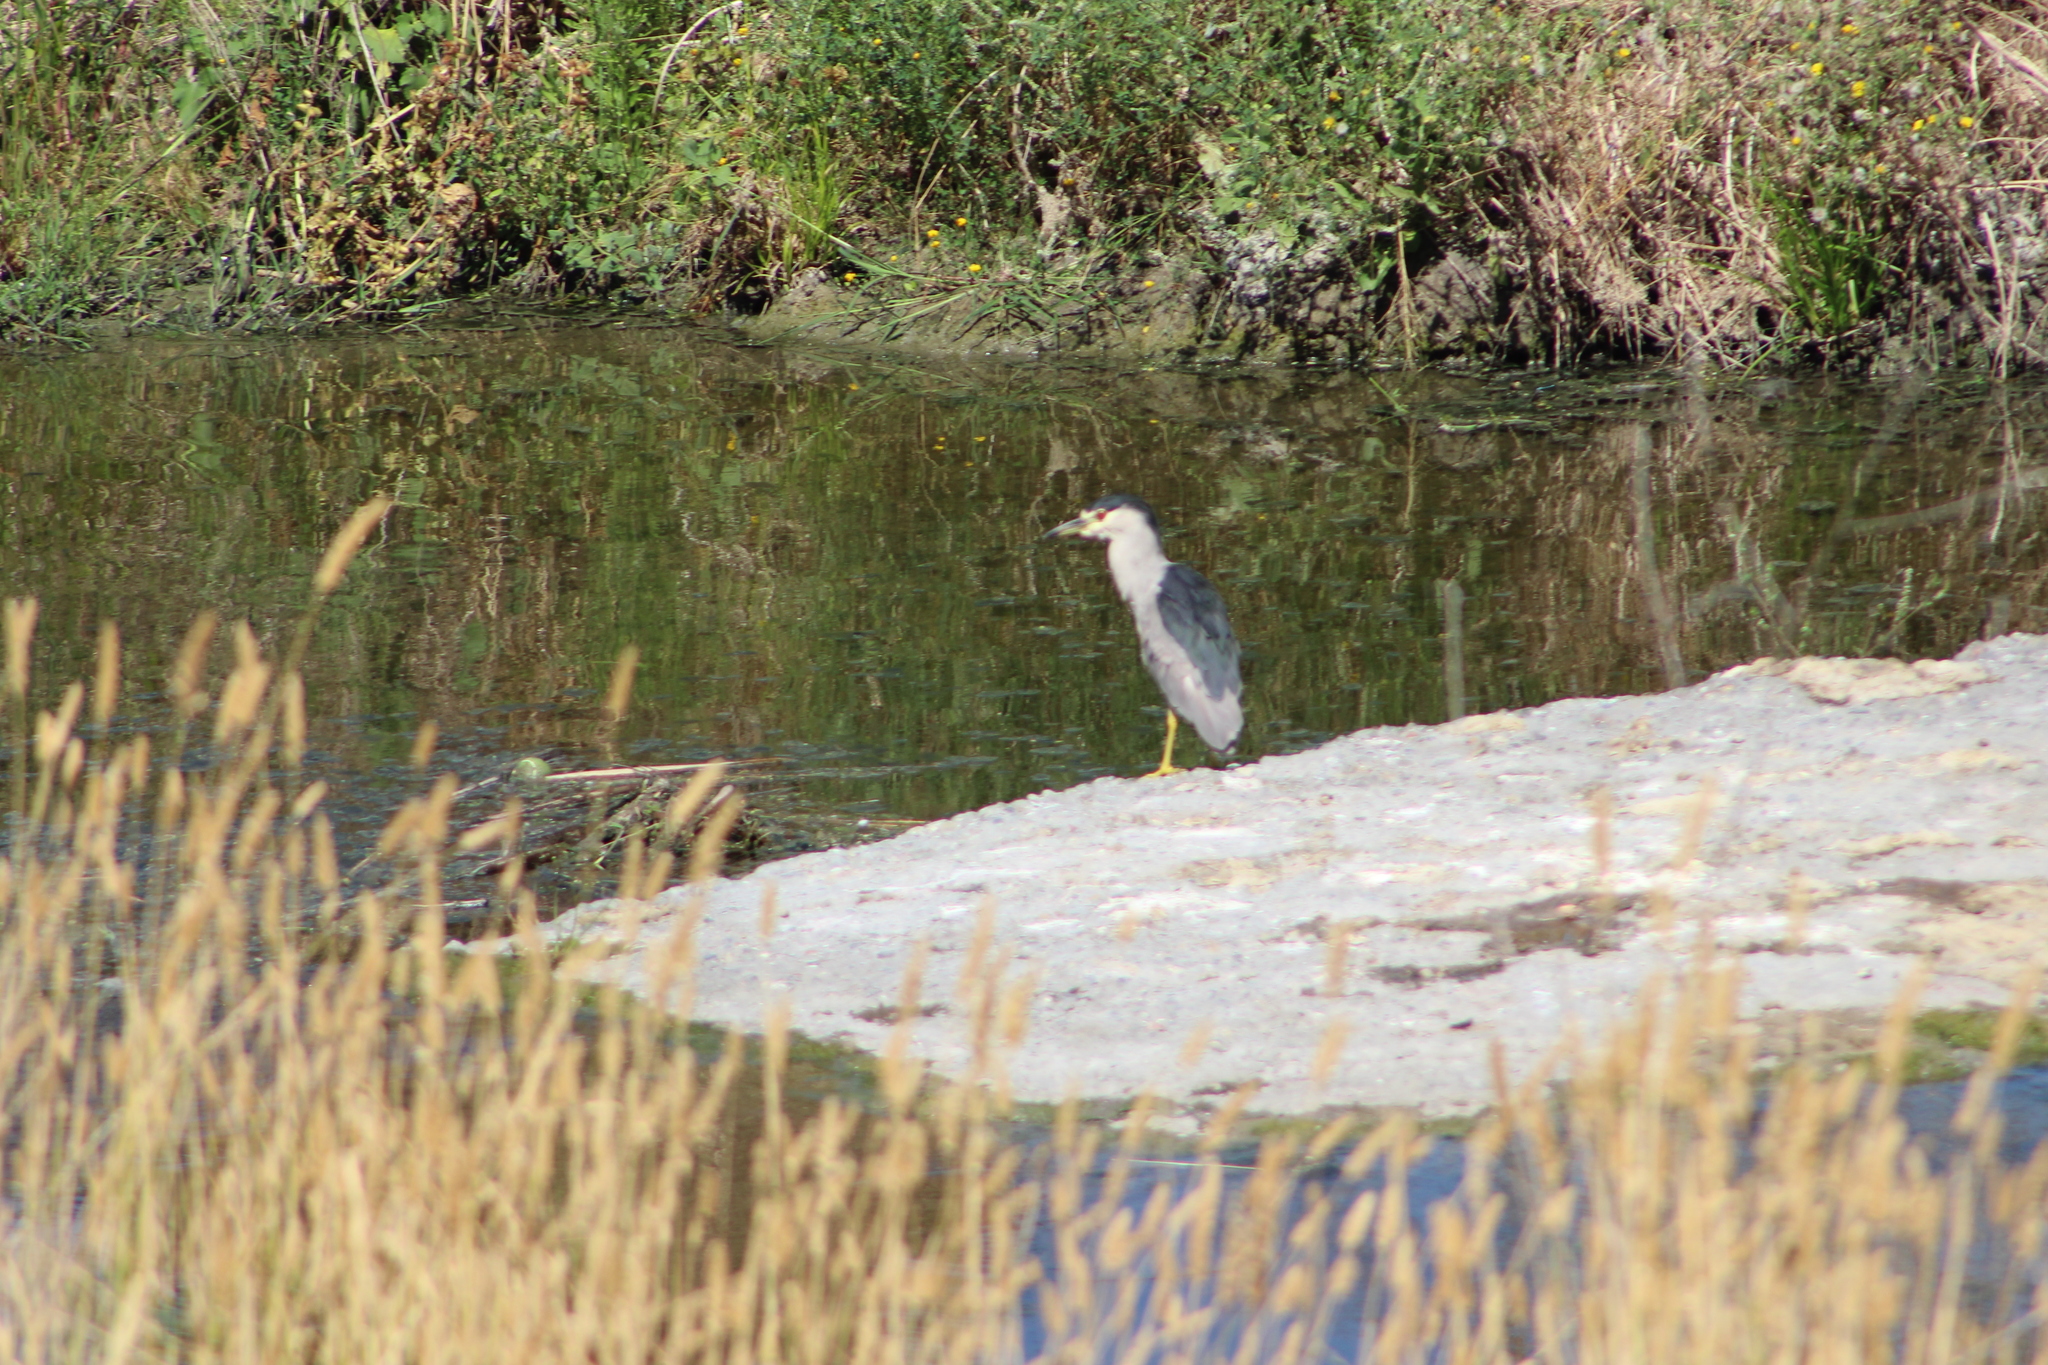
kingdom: Animalia
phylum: Chordata
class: Aves
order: Pelecaniformes
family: Ardeidae
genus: Nycticorax
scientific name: Nycticorax nycticorax
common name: Black-crowned night heron
